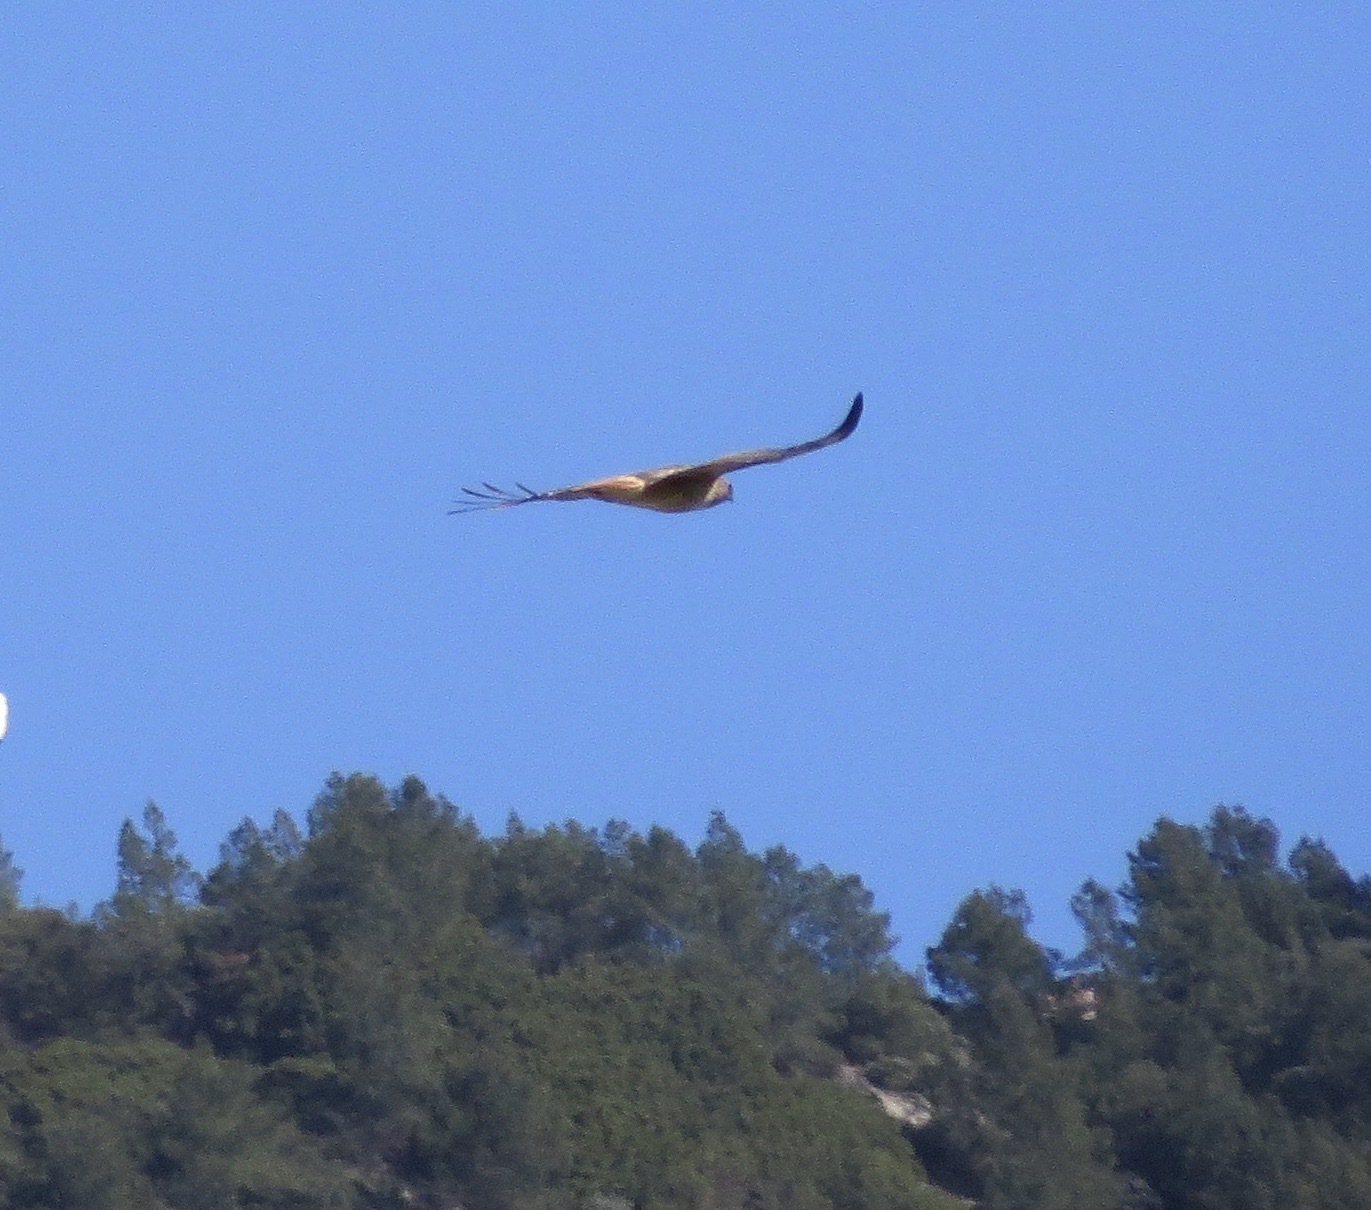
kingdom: Animalia
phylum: Chordata
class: Aves
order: Accipitriformes
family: Accipitridae
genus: Buteo
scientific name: Buteo jamaicensis
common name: Red-tailed hawk
